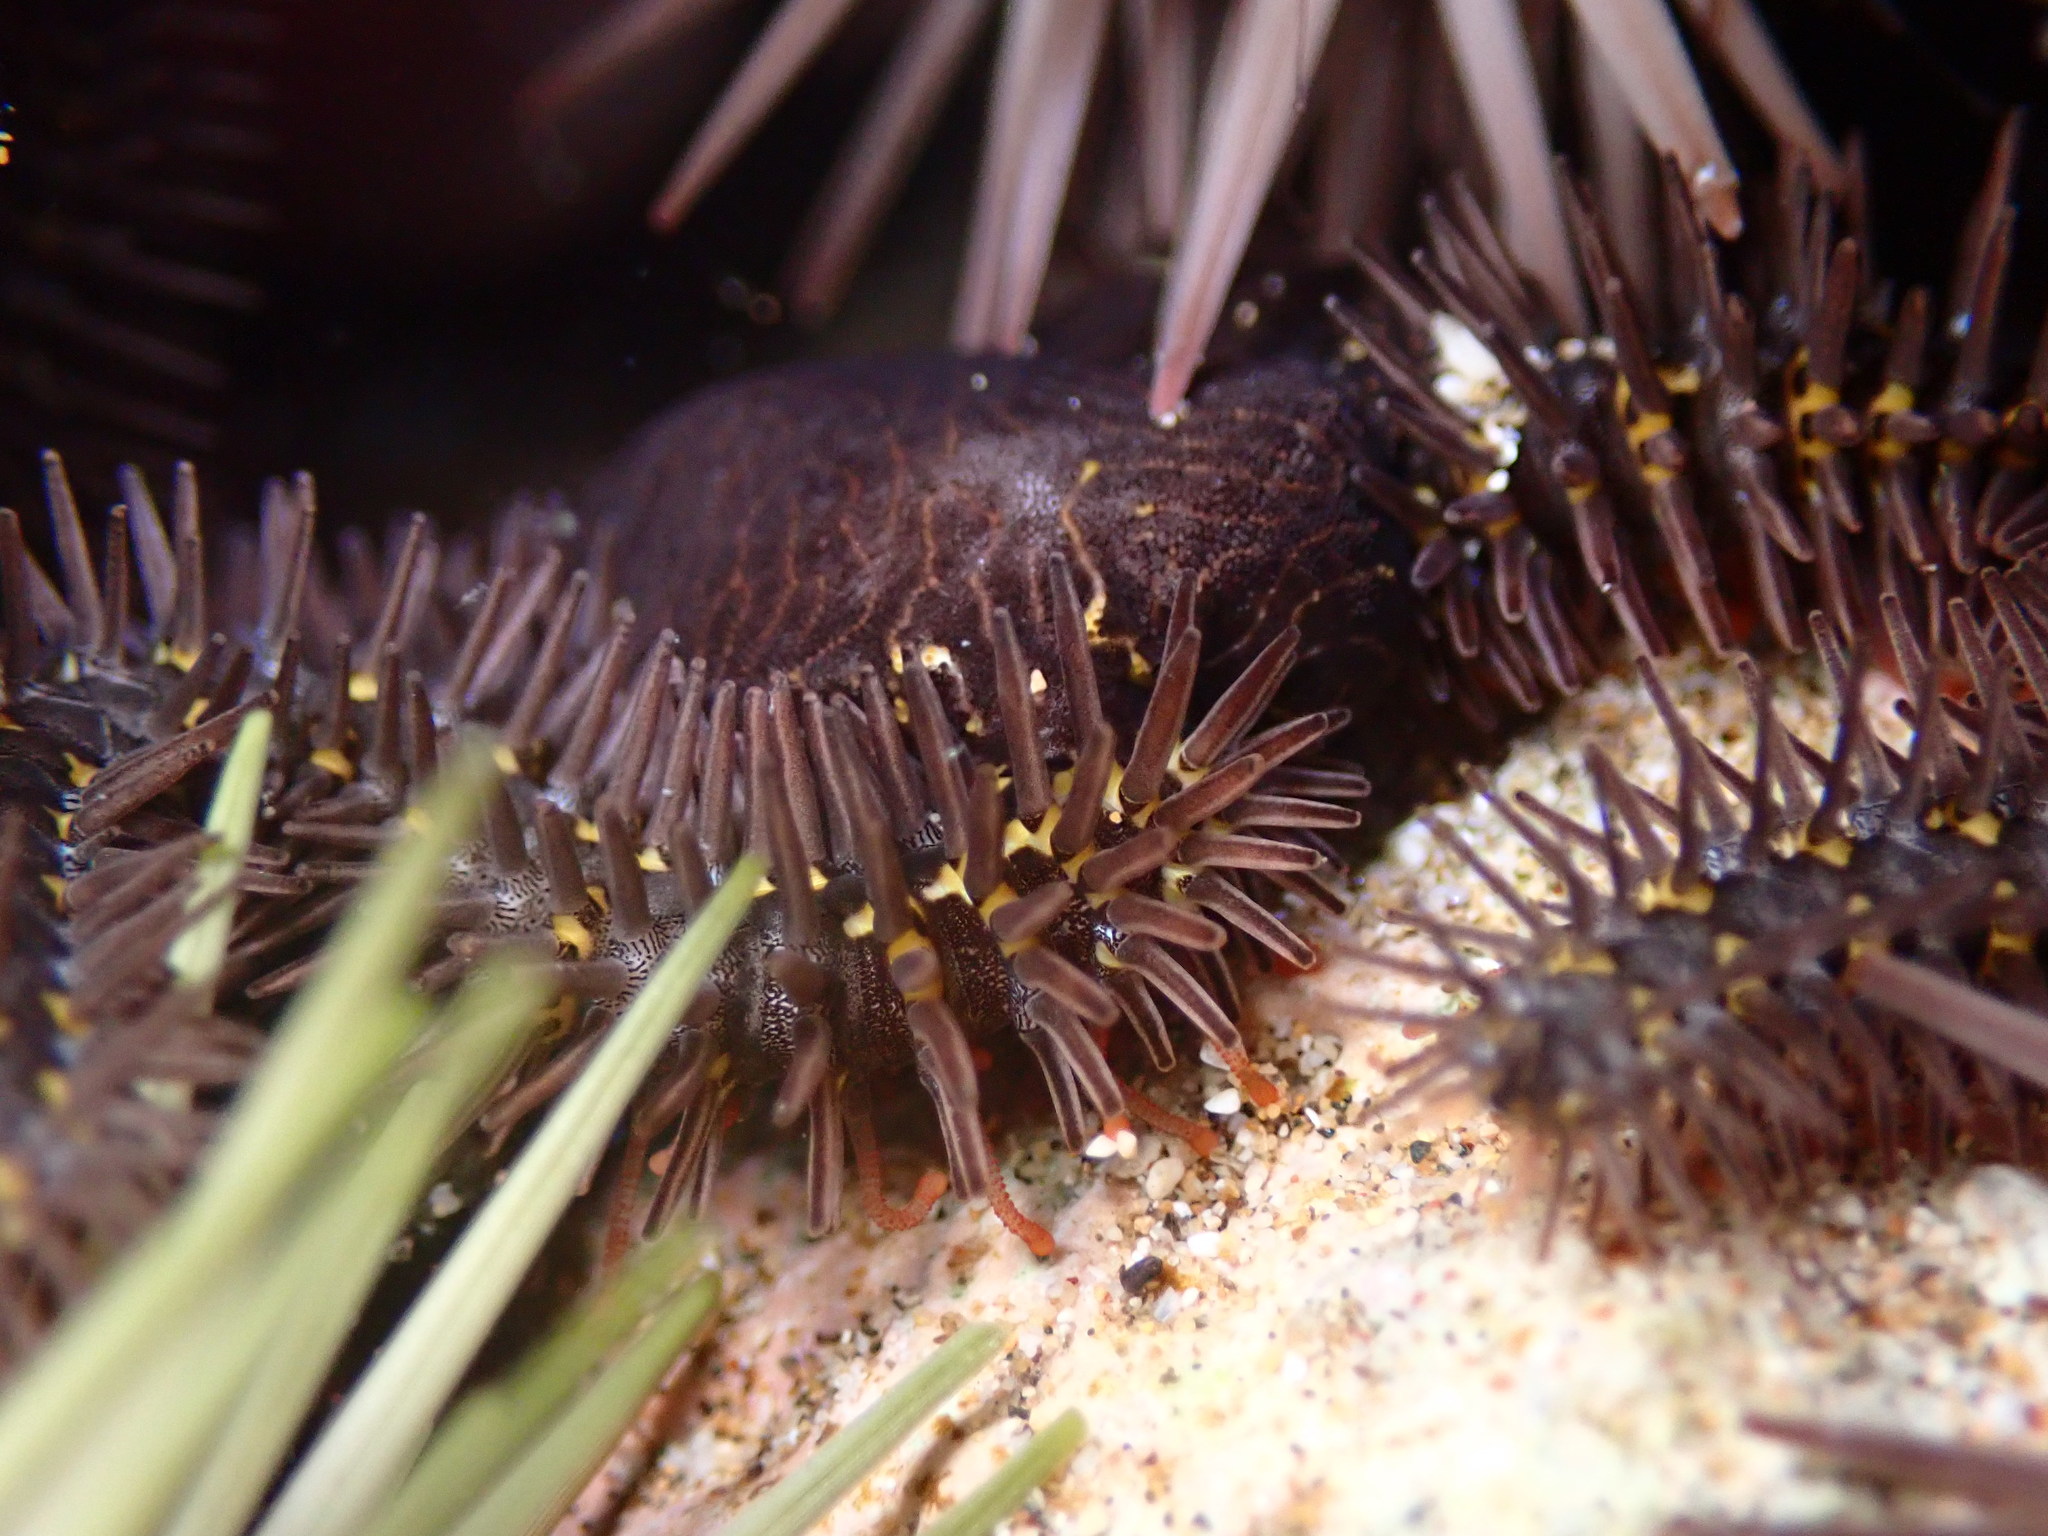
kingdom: Animalia
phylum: Echinodermata
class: Ophiuroidea
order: Ophiacanthida
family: Ophiocomidae
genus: Breviturma
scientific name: Breviturma pica
